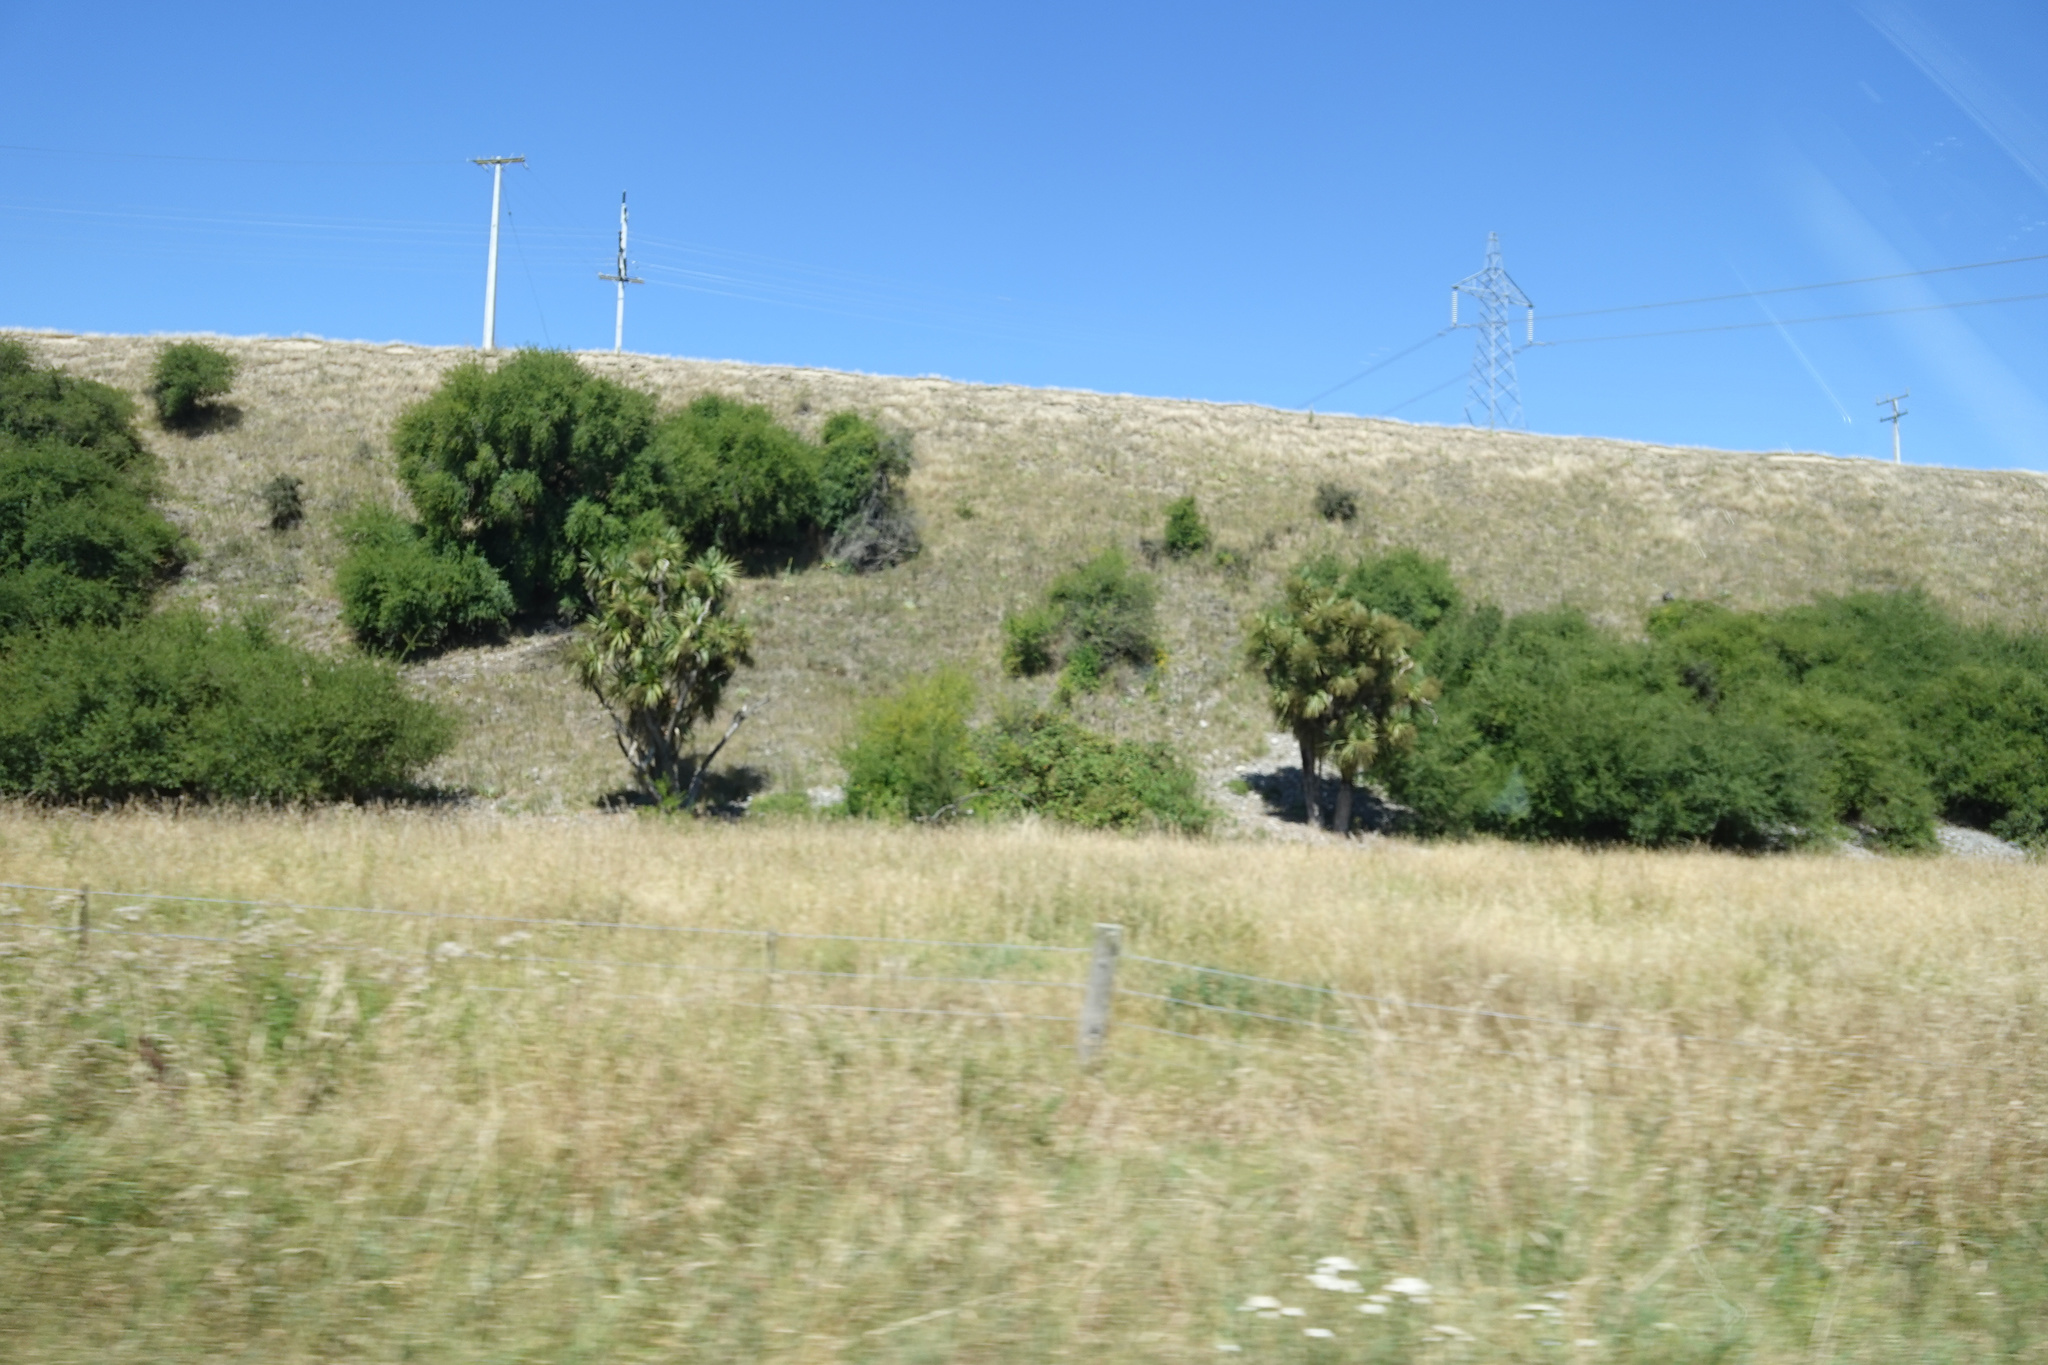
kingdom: Plantae
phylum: Tracheophyta
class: Liliopsida
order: Asparagales
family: Asparagaceae
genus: Cordyline
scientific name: Cordyline australis
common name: Cabbage-palm
